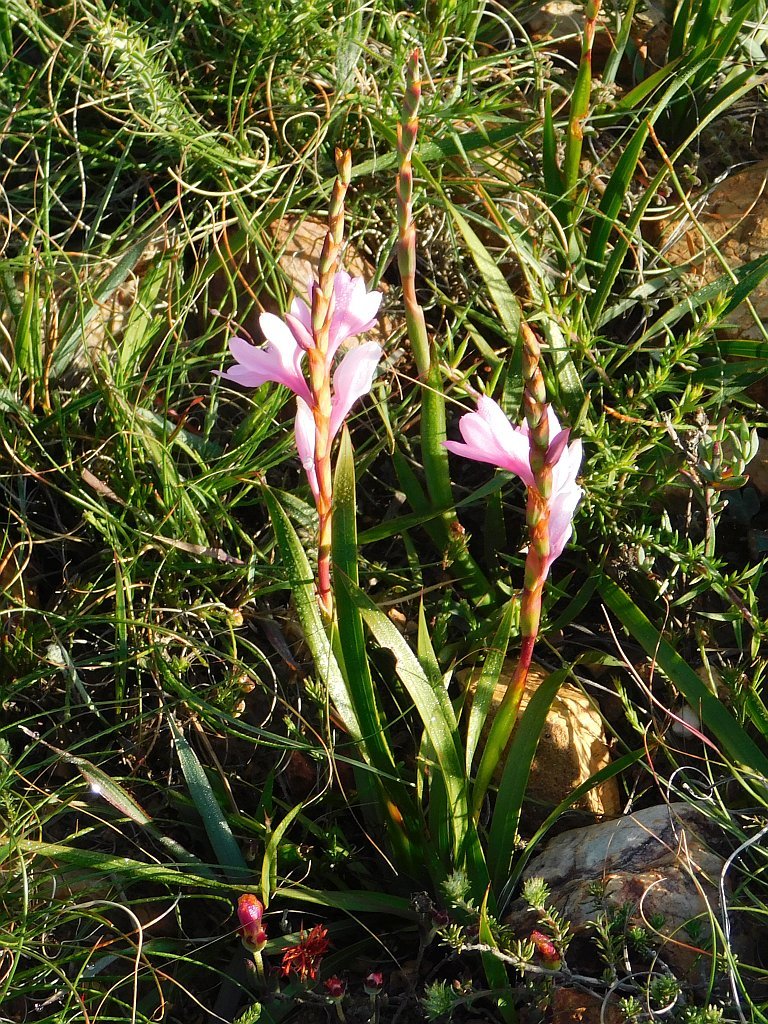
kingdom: Plantae
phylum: Tracheophyta
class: Liliopsida
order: Asparagales
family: Iridaceae
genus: Watsonia
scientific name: Watsonia laccata
